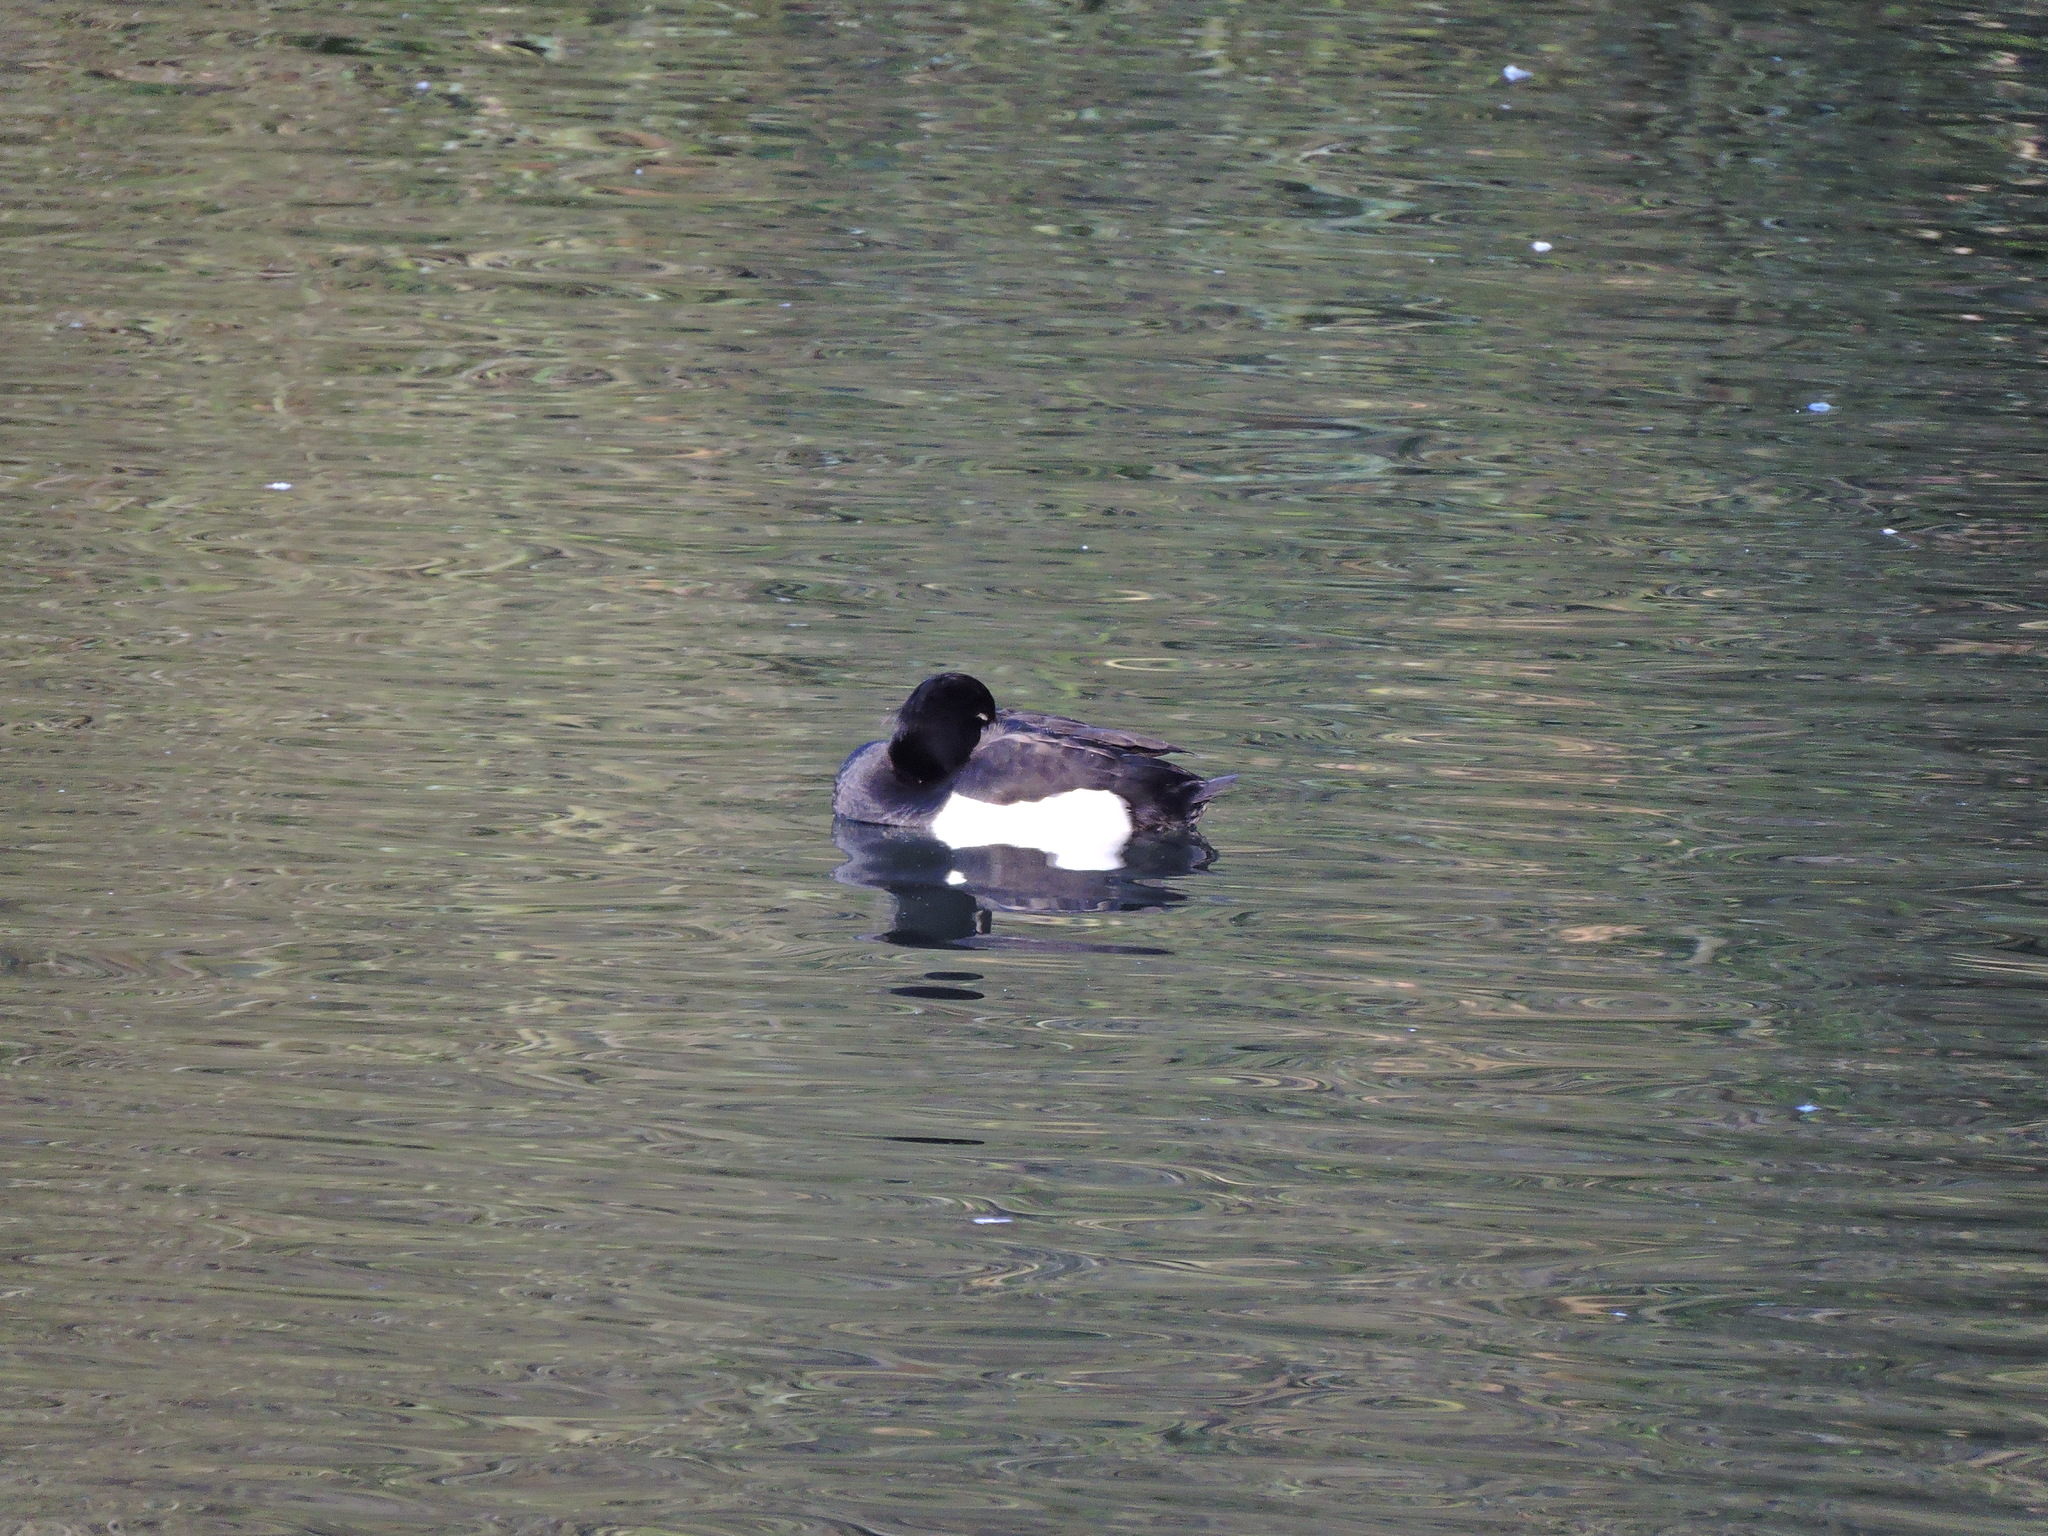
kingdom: Animalia
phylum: Chordata
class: Aves
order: Anseriformes
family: Anatidae
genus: Aythya
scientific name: Aythya fuligula
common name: Tufted duck
